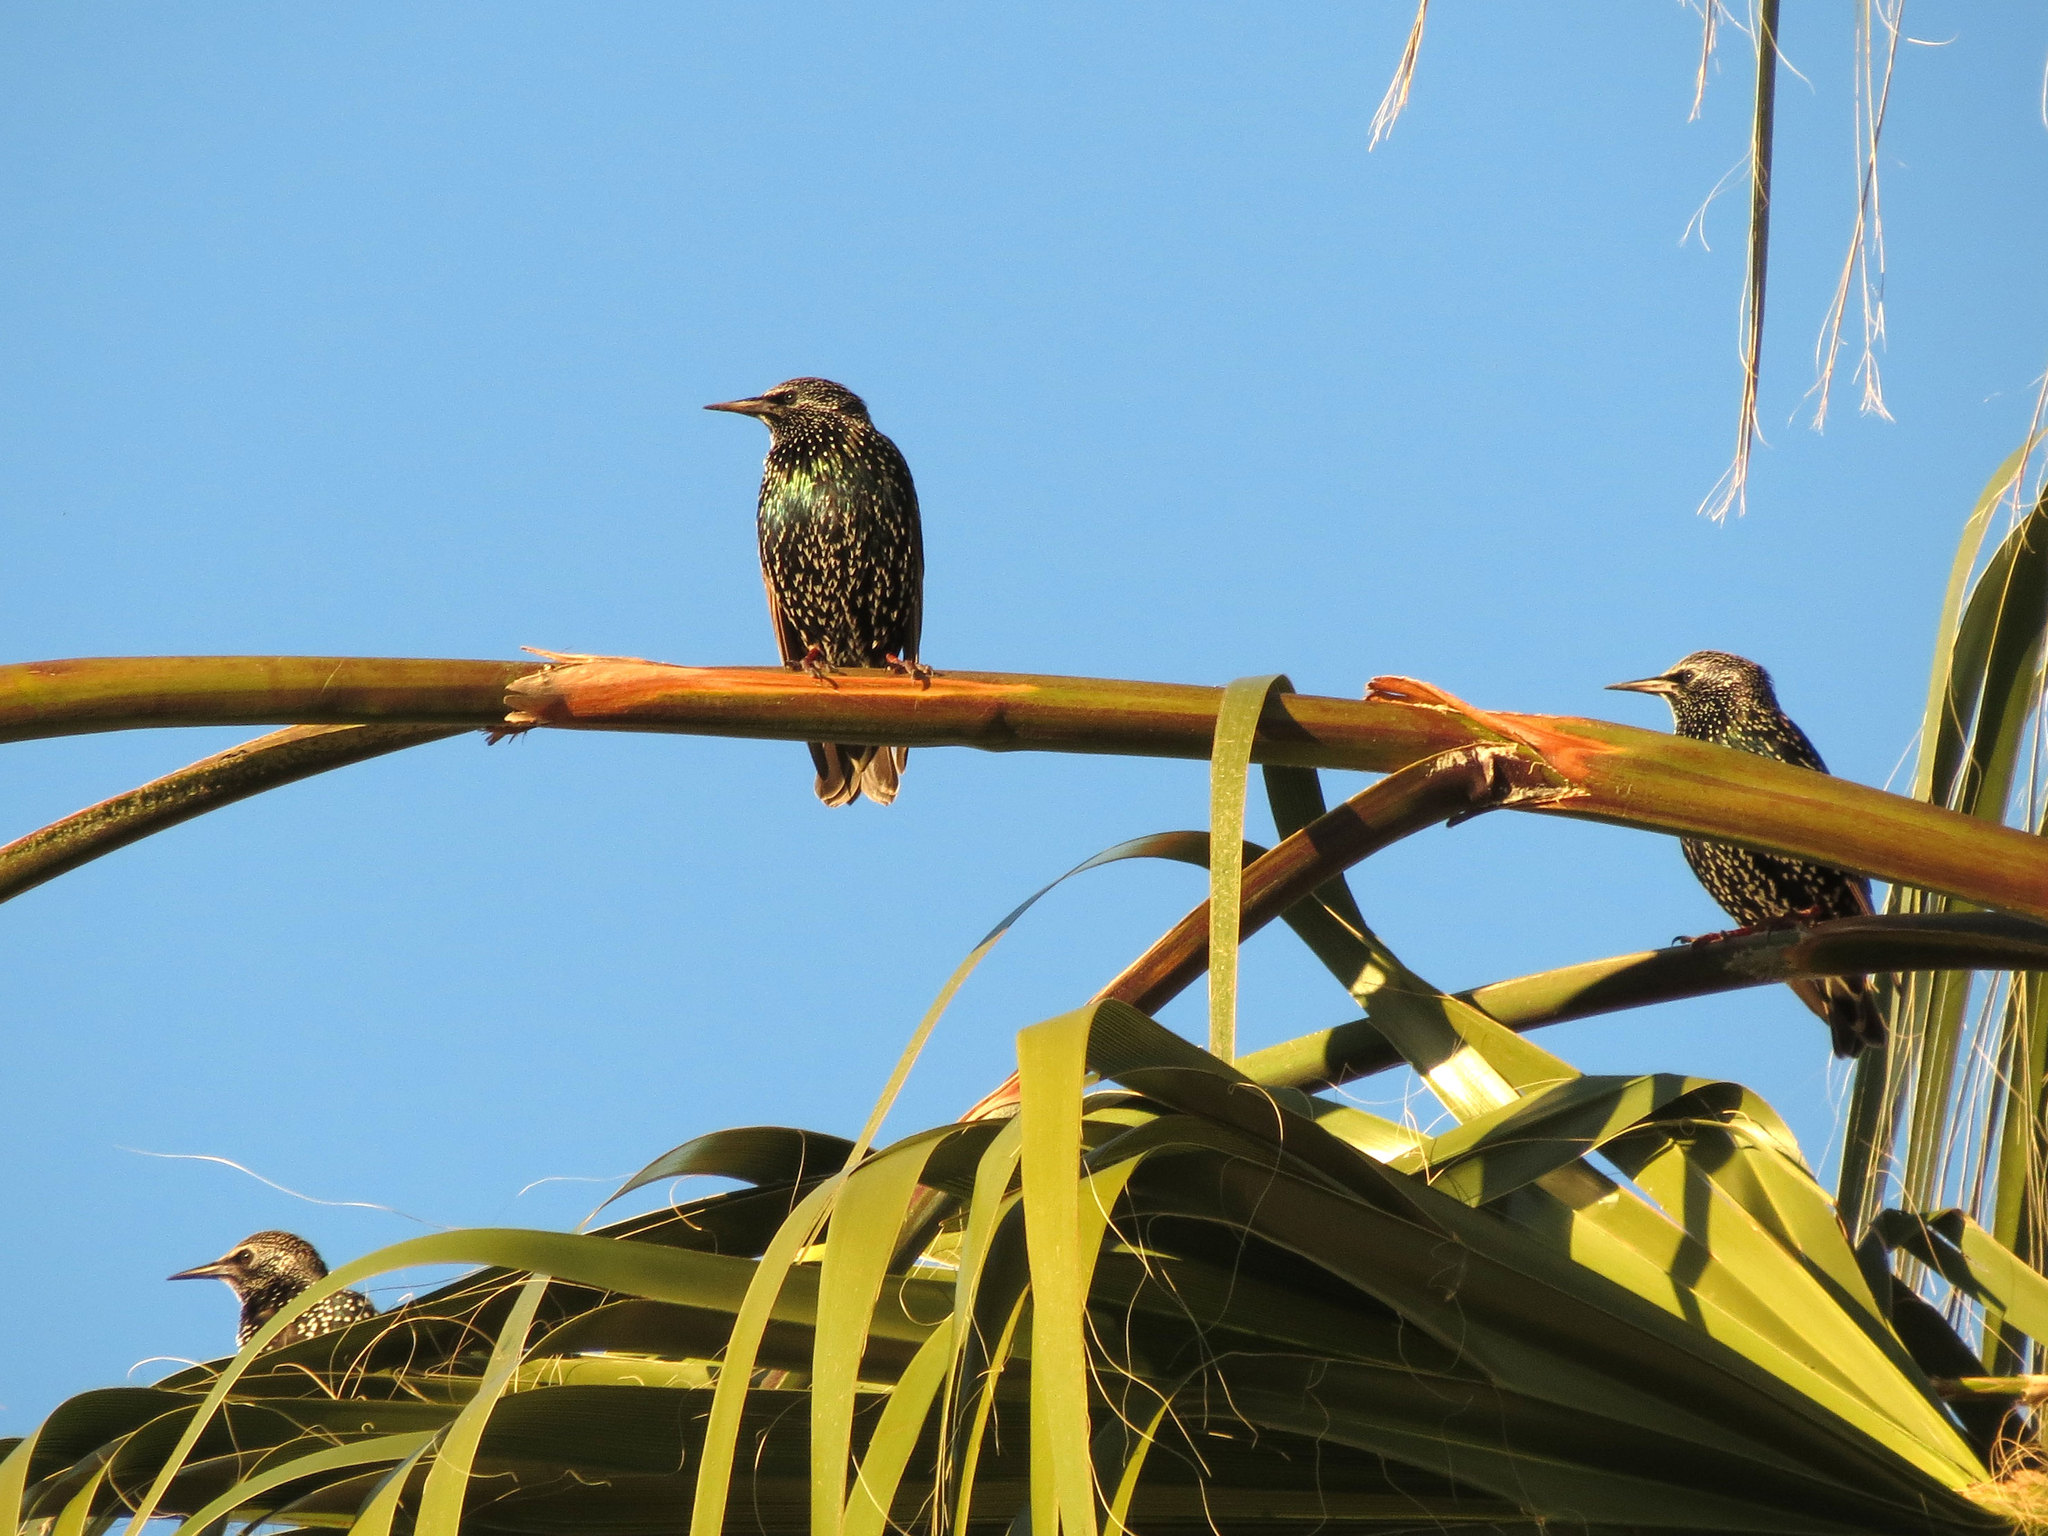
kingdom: Animalia
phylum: Chordata
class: Aves
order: Passeriformes
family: Sturnidae
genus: Sturnus
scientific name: Sturnus vulgaris
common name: Common starling
